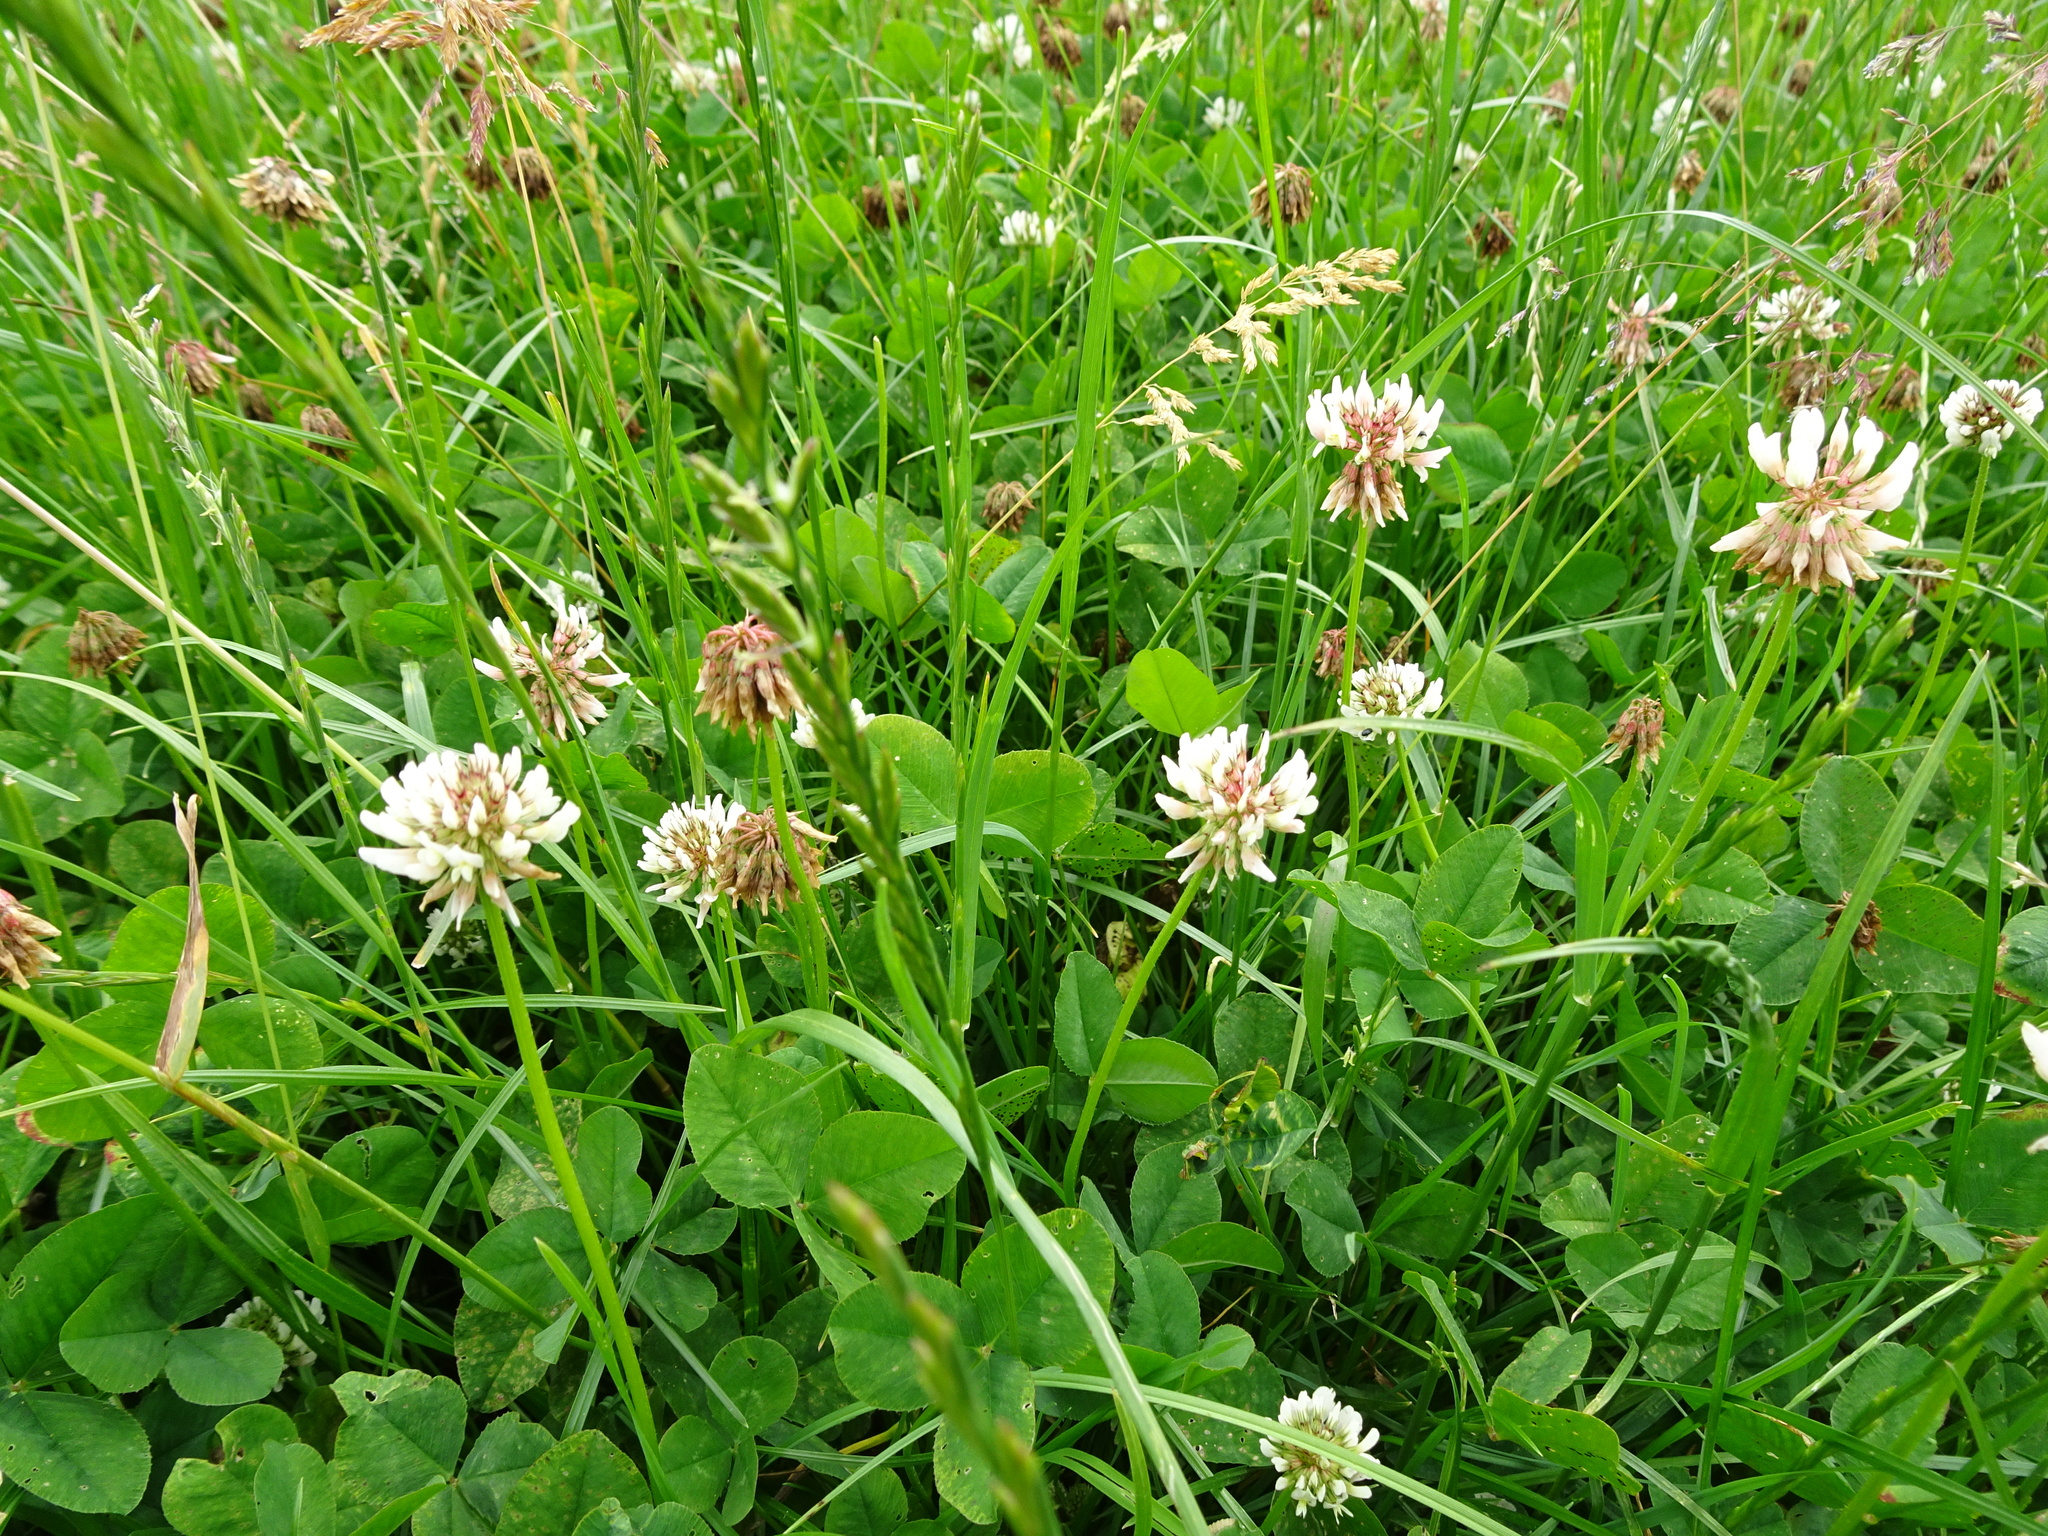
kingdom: Plantae
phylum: Tracheophyta
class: Magnoliopsida
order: Fabales
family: Fabaceae
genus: Trifolium
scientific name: Trifolium repens
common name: White clover
